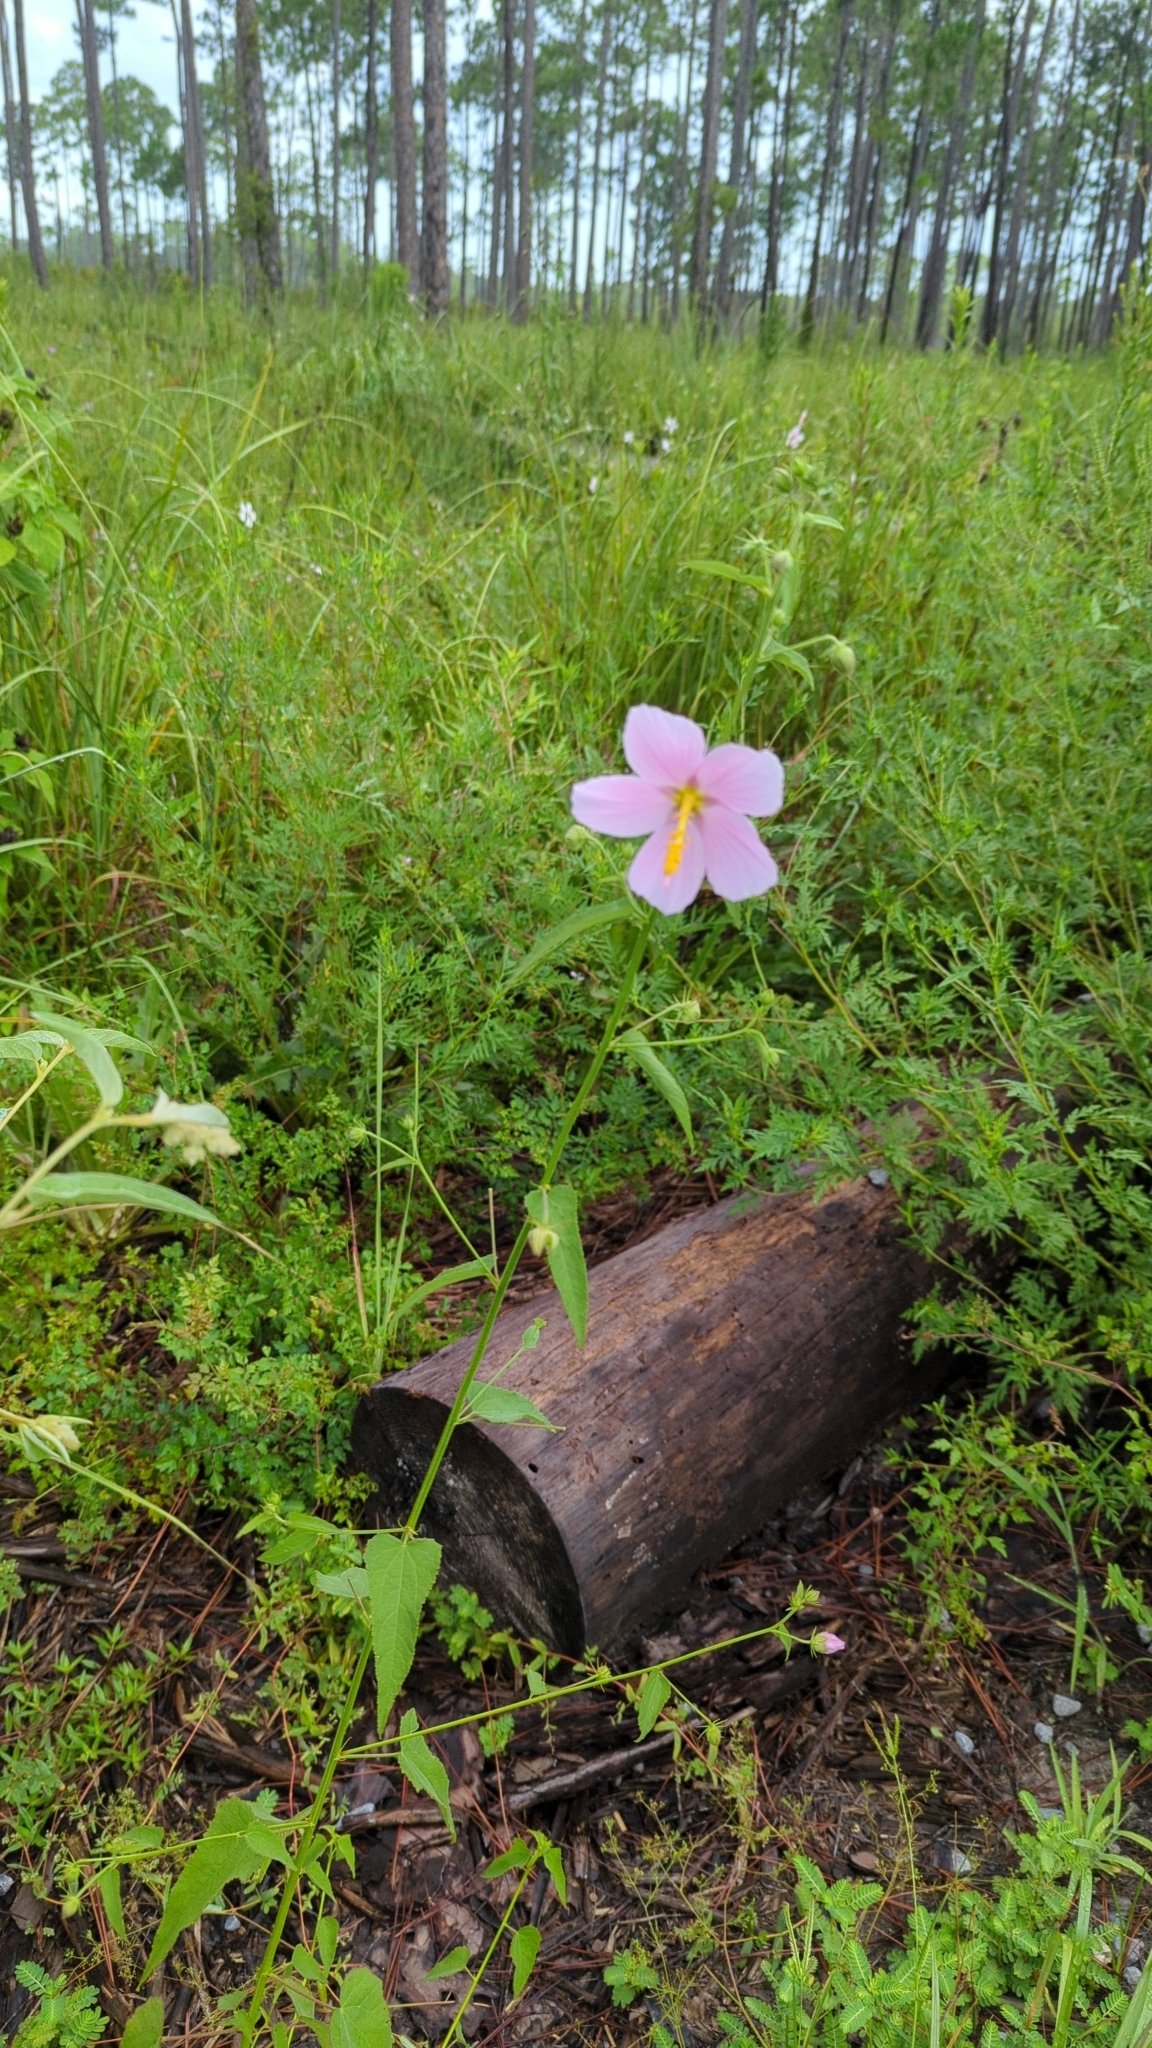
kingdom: Plantae
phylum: Tracheophyta
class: Magnoliopsida
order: Malvales
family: Malvaceae
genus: Kosteletzkya
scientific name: Kosteletzkya pentacarpos
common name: Virginia saltmarsh mallow
